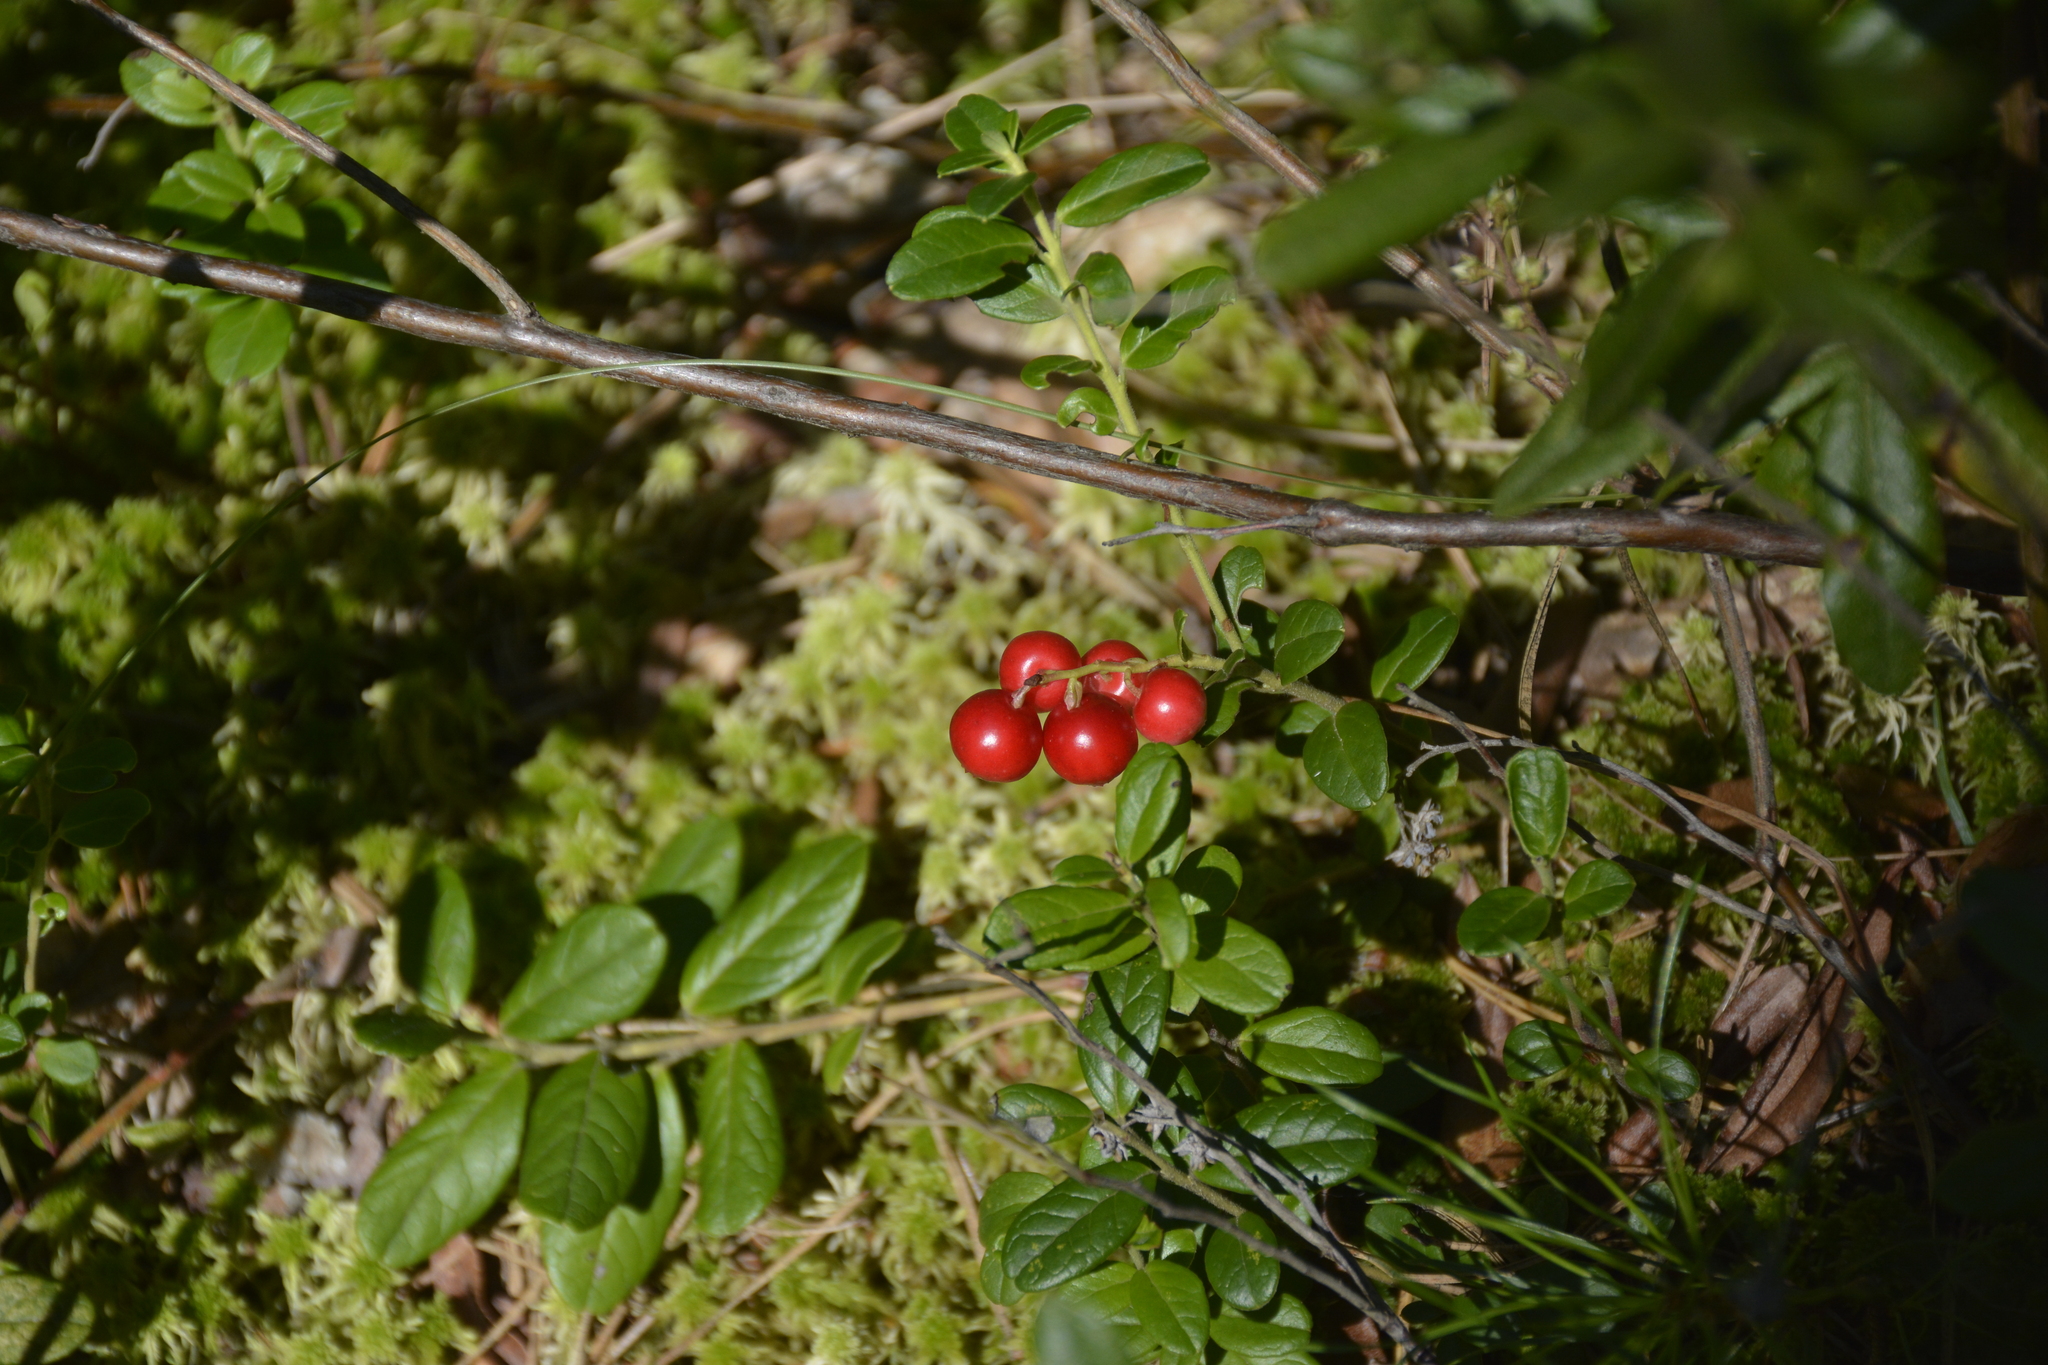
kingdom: Plantae
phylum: Tracheophyta
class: Magnoliopsida
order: Ericales
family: Ericaceae
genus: Vaccinium
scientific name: Vaccinium vitis-idaea
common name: Cowberry
